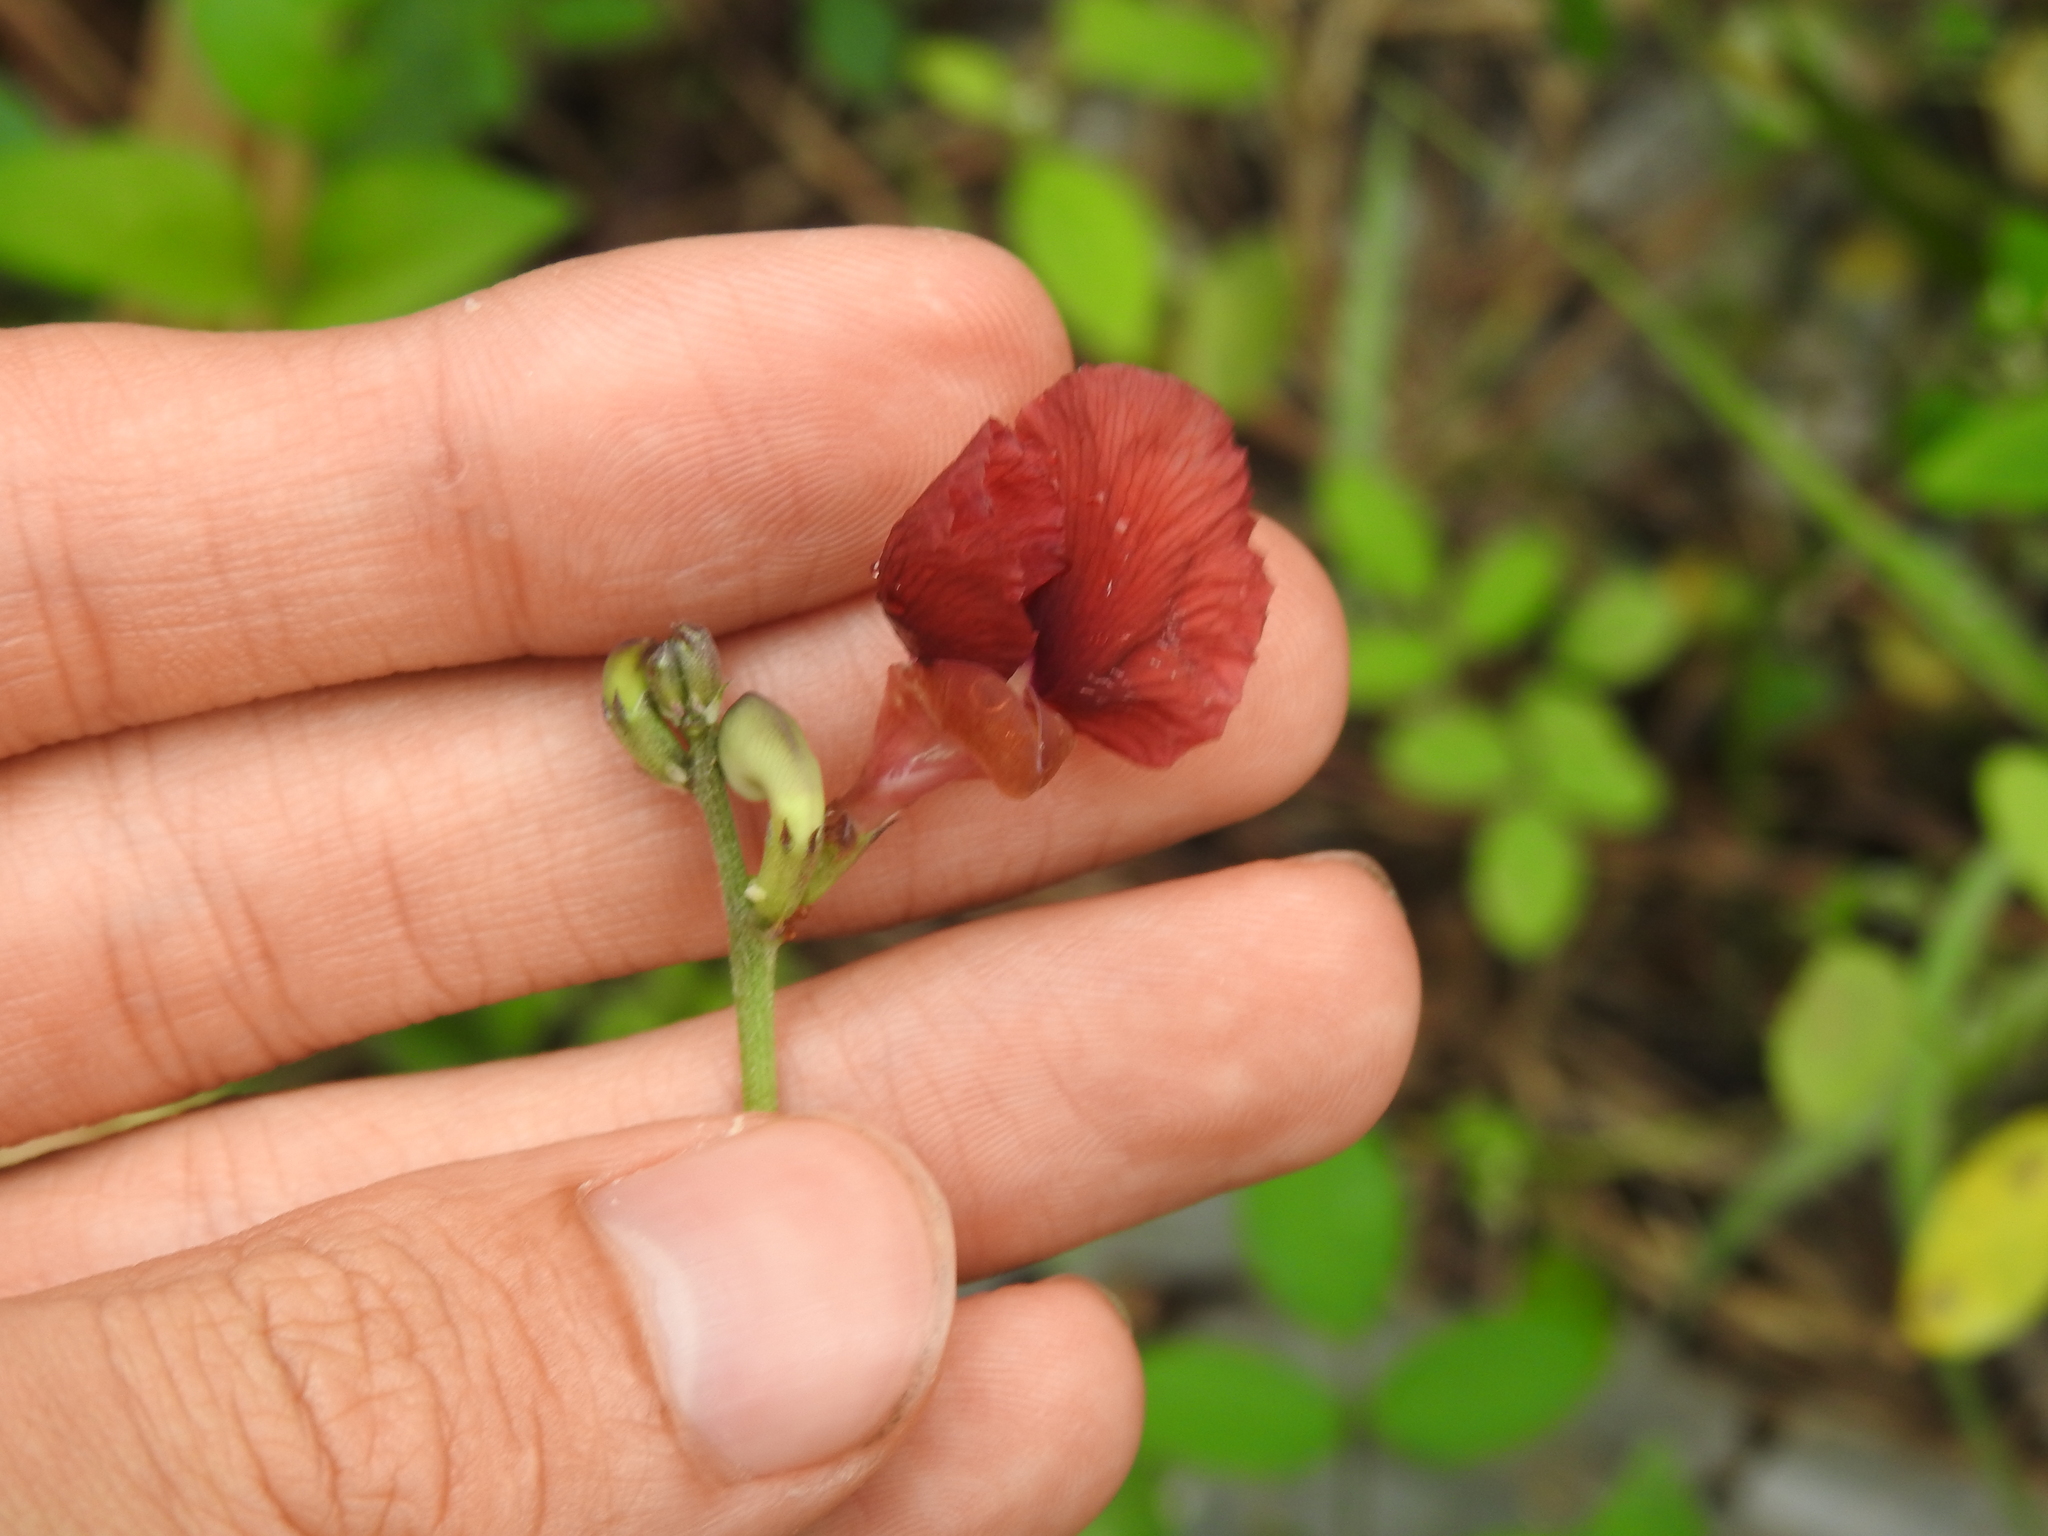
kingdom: Plantae
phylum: Tracheophyta
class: Magnoliopsida
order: Fabales
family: Fabaceae
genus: Macroptilium
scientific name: Macroptilium lathyroides
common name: Wild bushbean
